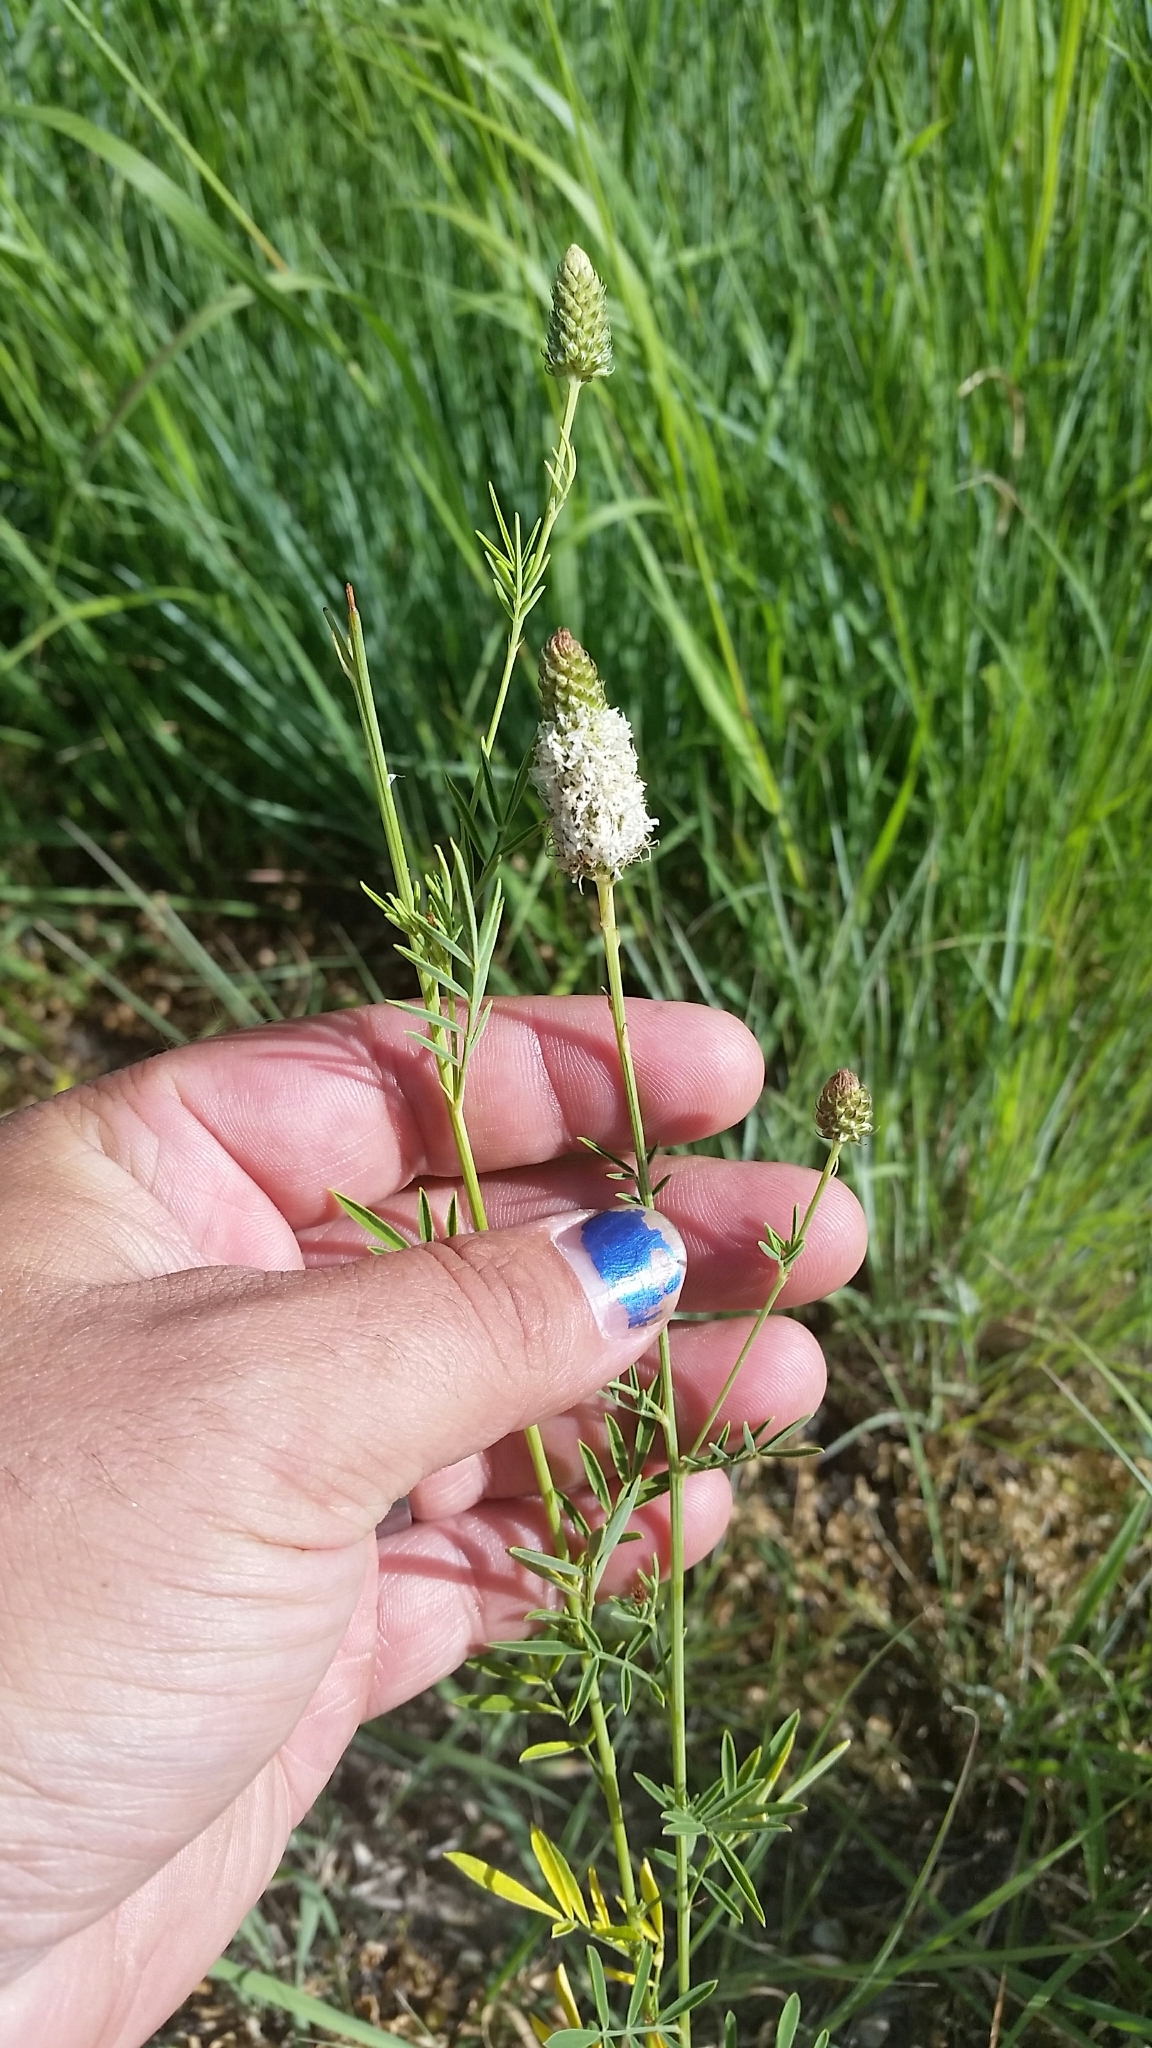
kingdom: Plantae
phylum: Tracheophyta
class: Magnoliopsida
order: Fabales
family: Fabaceae
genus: Dalea
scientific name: Dalea candida
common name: White prairie-clover
